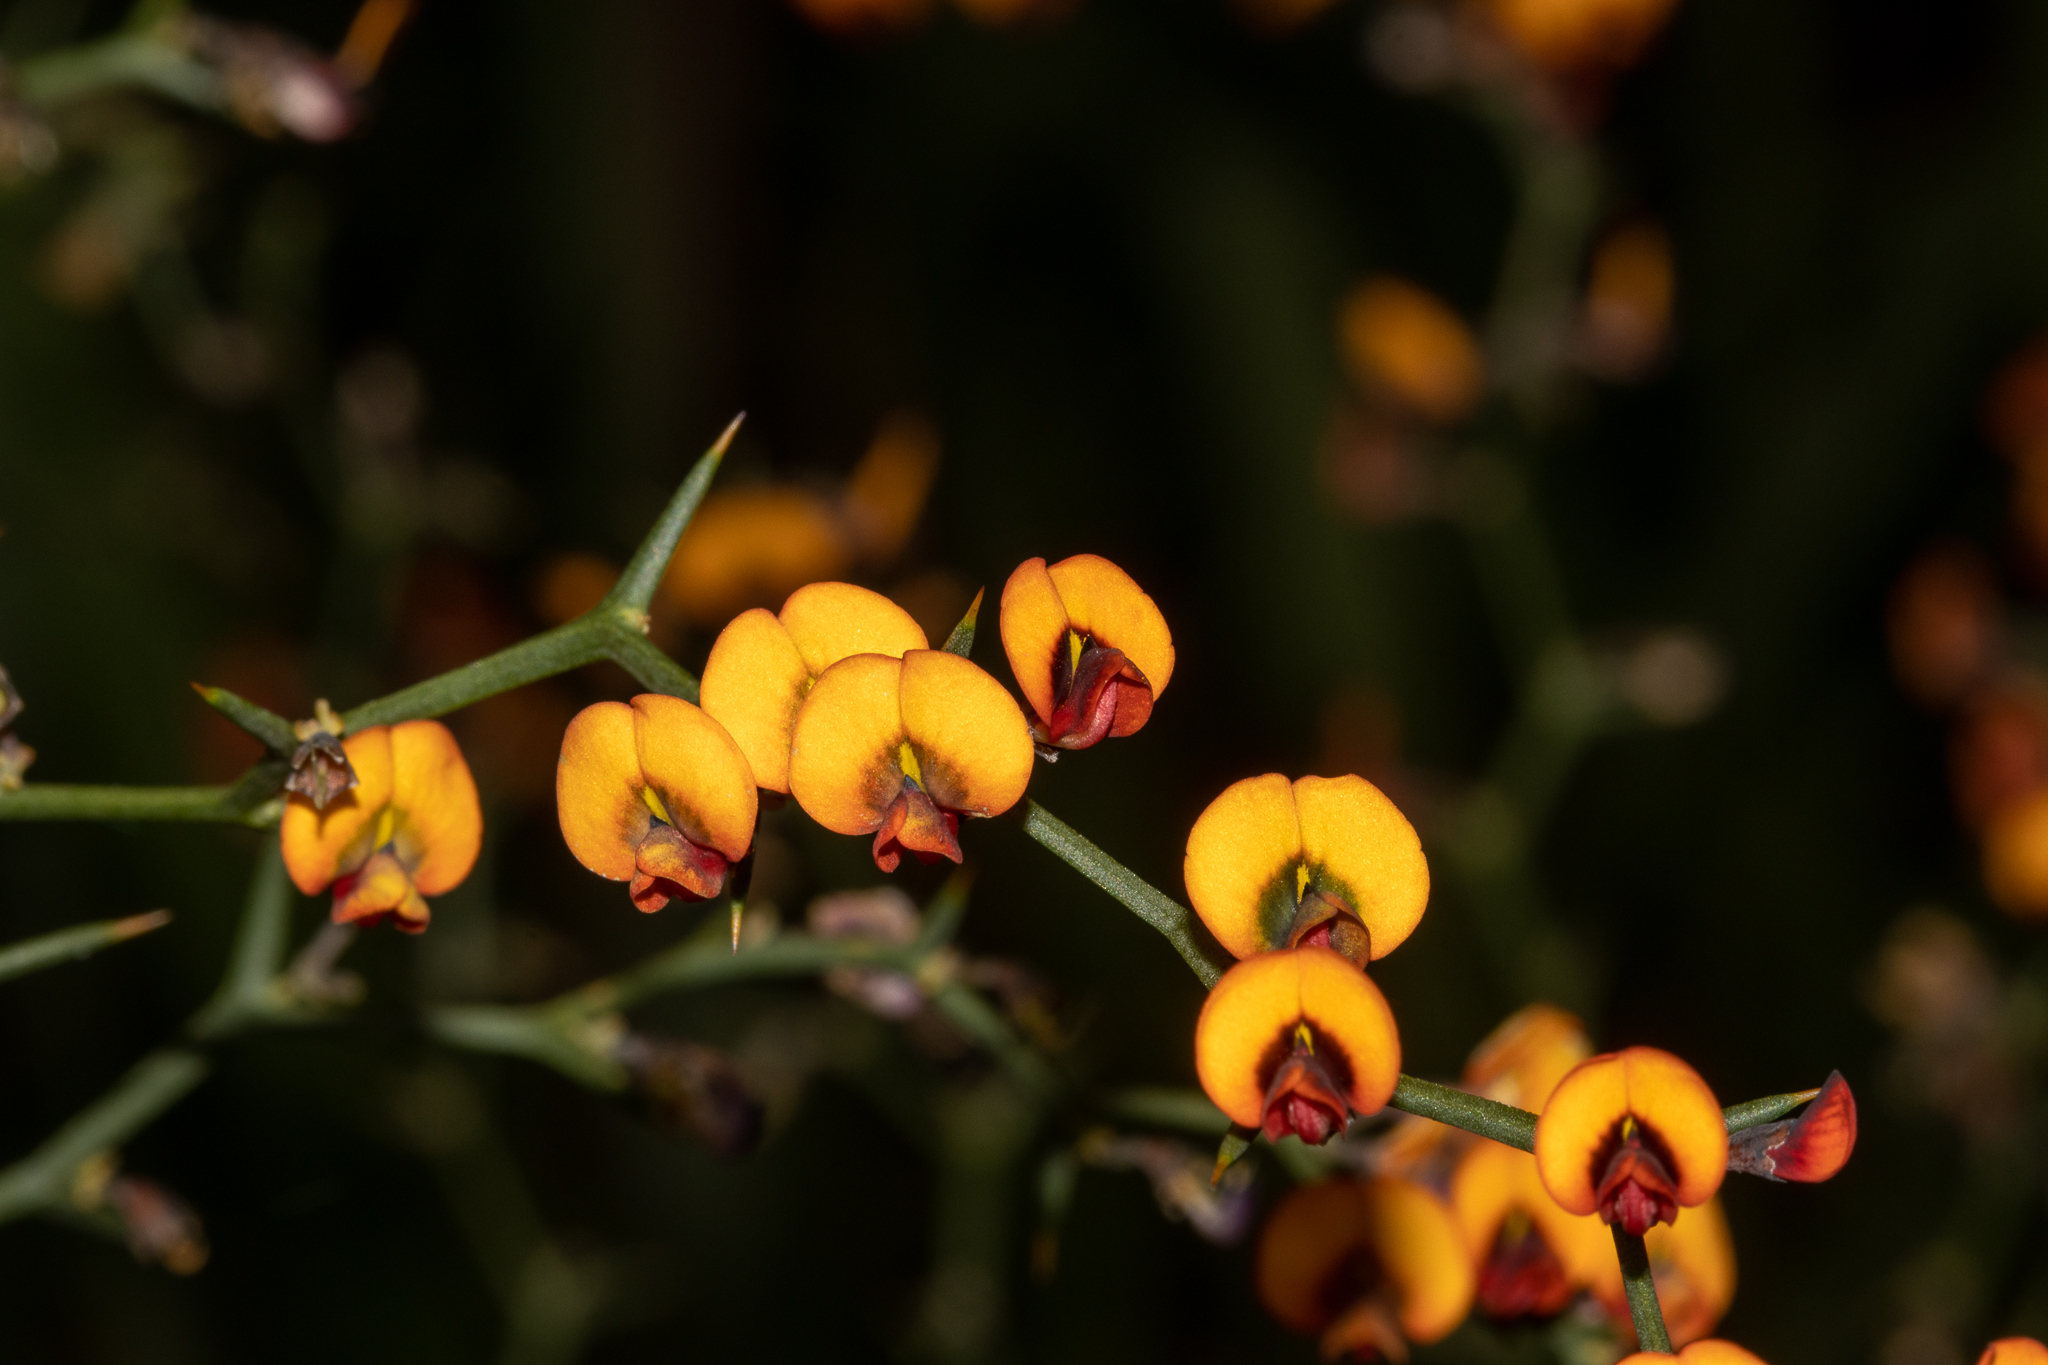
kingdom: Plantae
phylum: Tracheophyta
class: Magnoliopsida
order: Fabales
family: Fabaceae
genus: Daviesia
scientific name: Daviesia flexuosa
